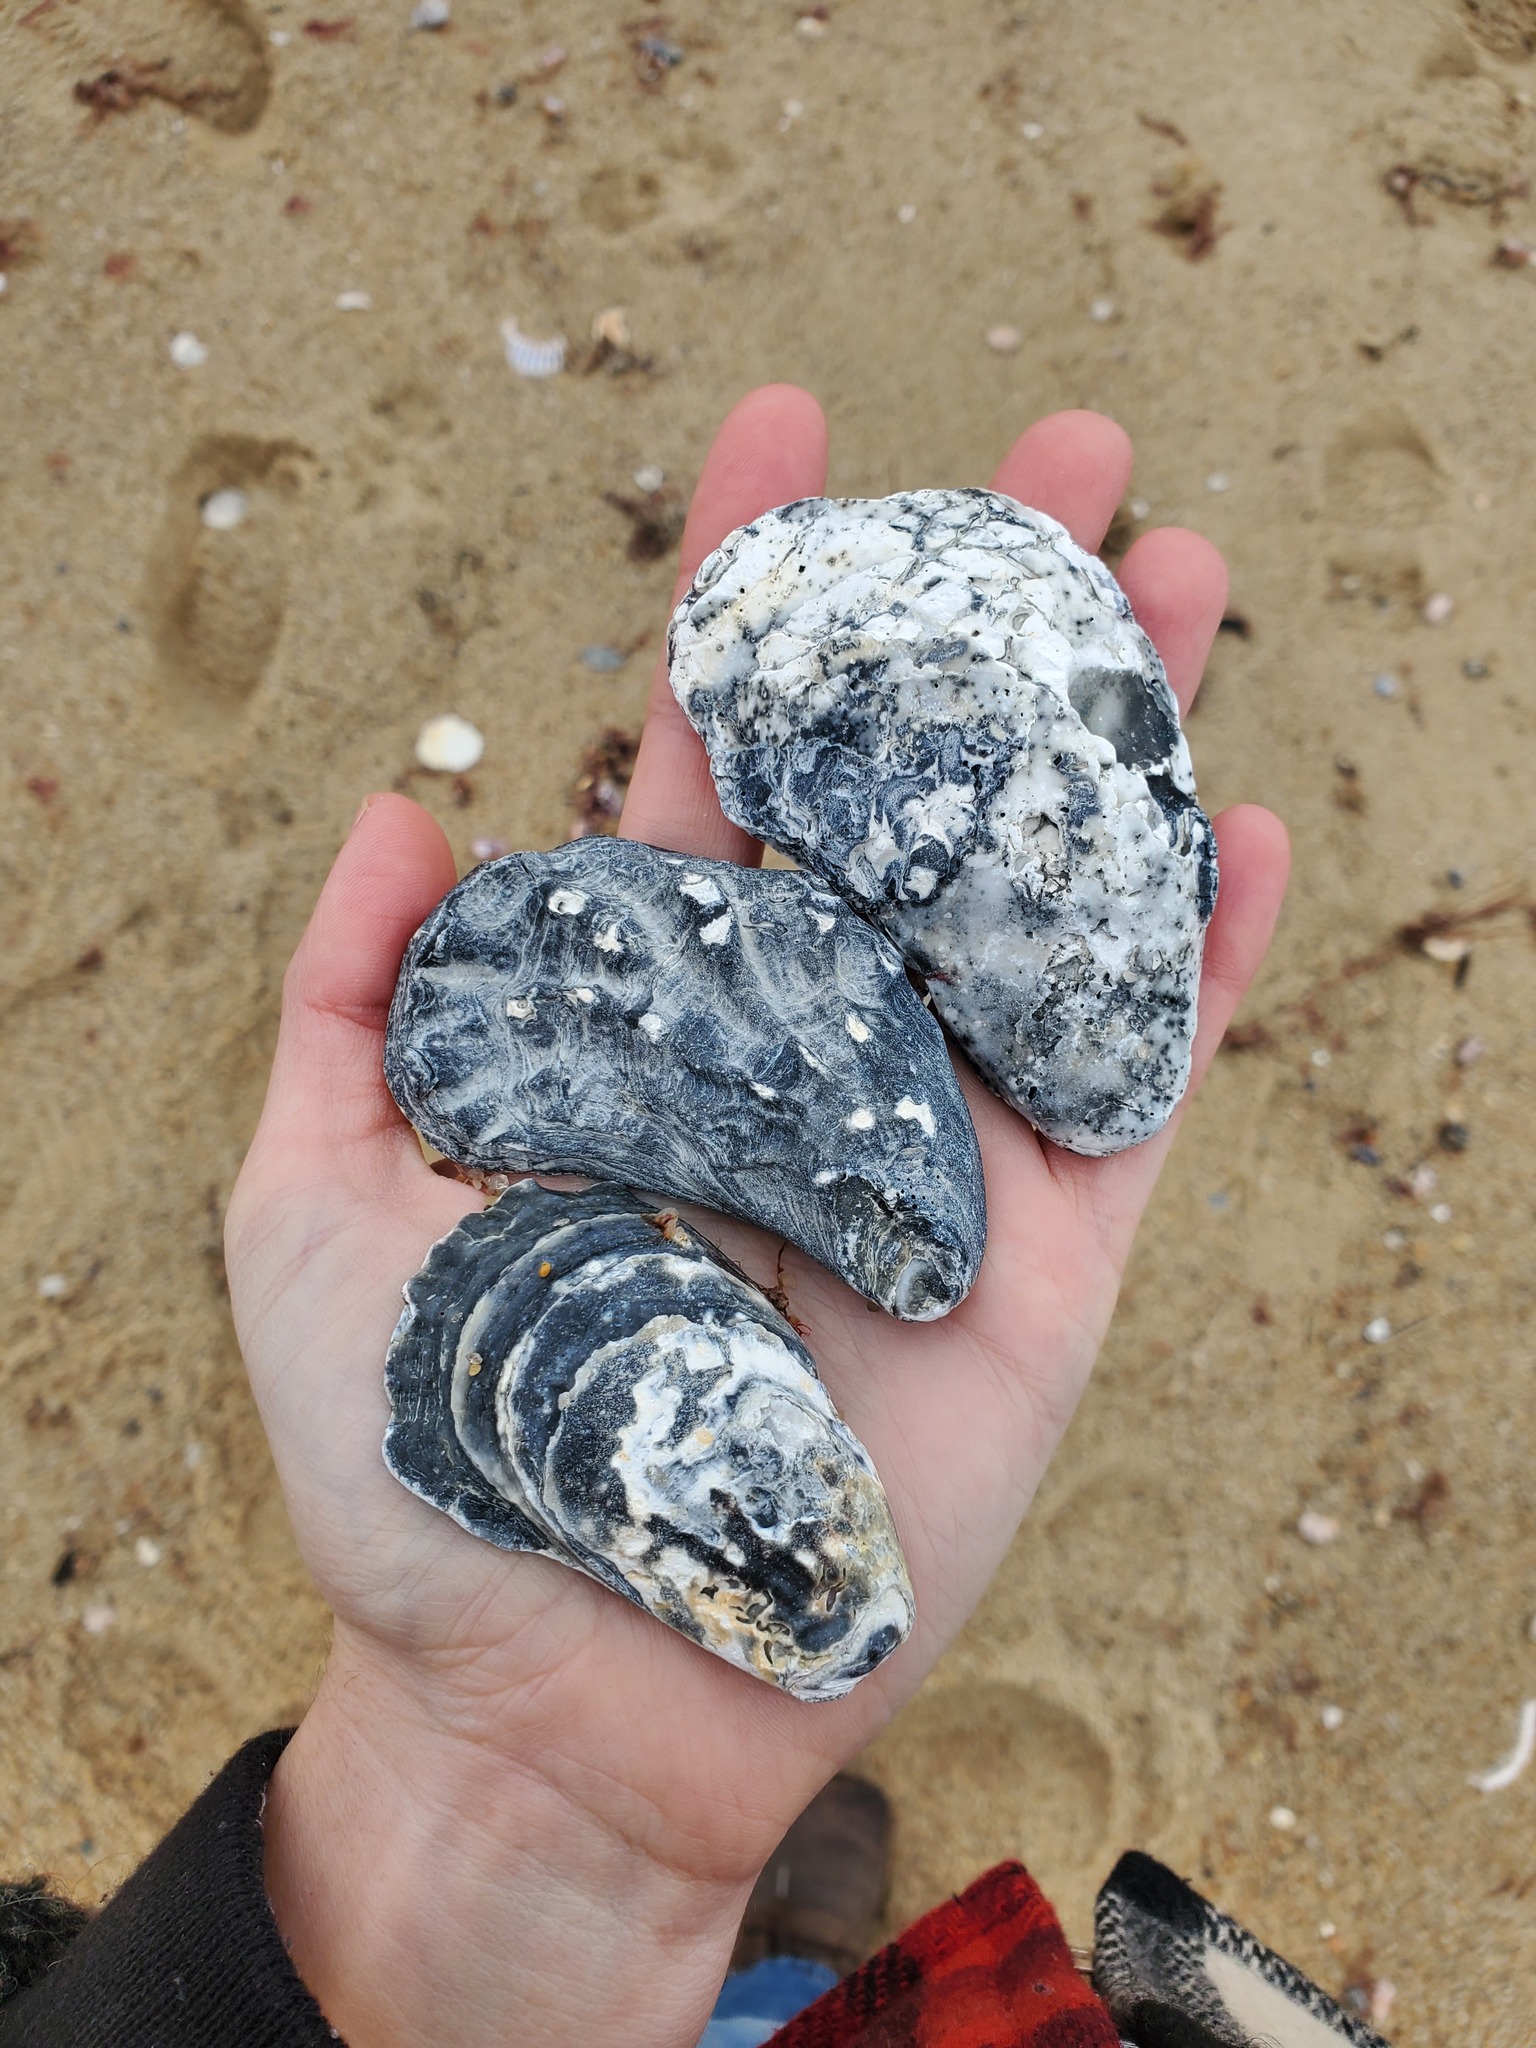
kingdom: Animalia
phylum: Mollusca
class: Bivalvia
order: Ostreida
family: Ostreidae
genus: Crassostrea
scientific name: Crassostrea virginica
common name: American oyster
